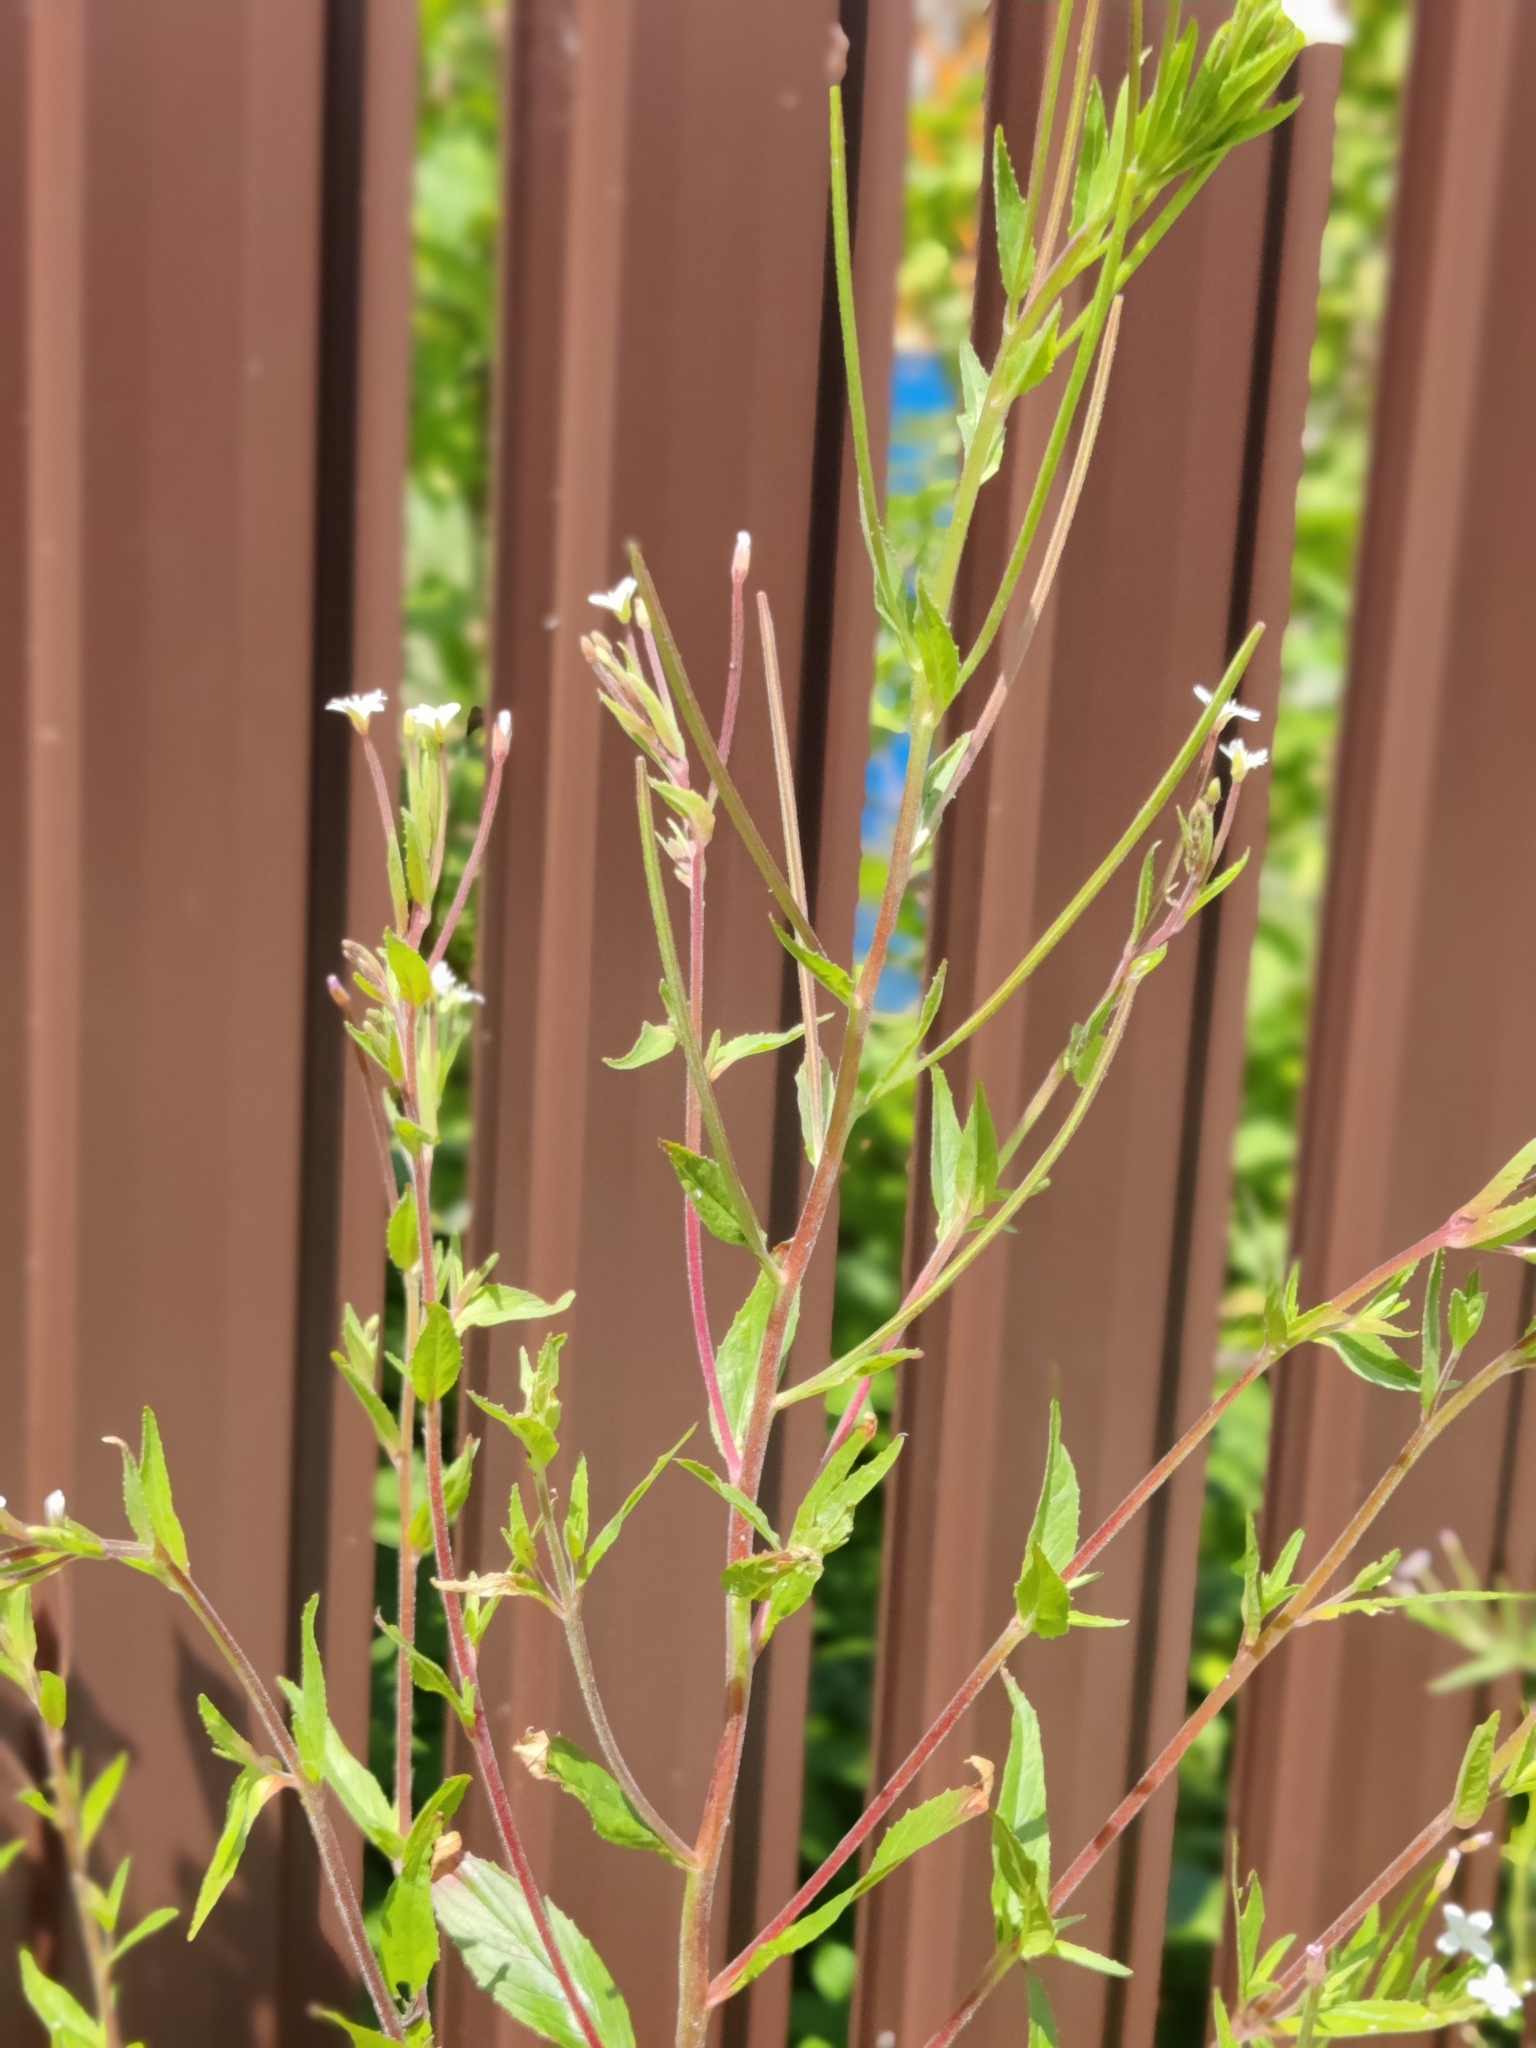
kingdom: Plantae
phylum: Tracheophyta
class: Magnoliopsida
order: Myrtales
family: Onagraceae
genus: Epilobium
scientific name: Epilobium pseudorubescens
